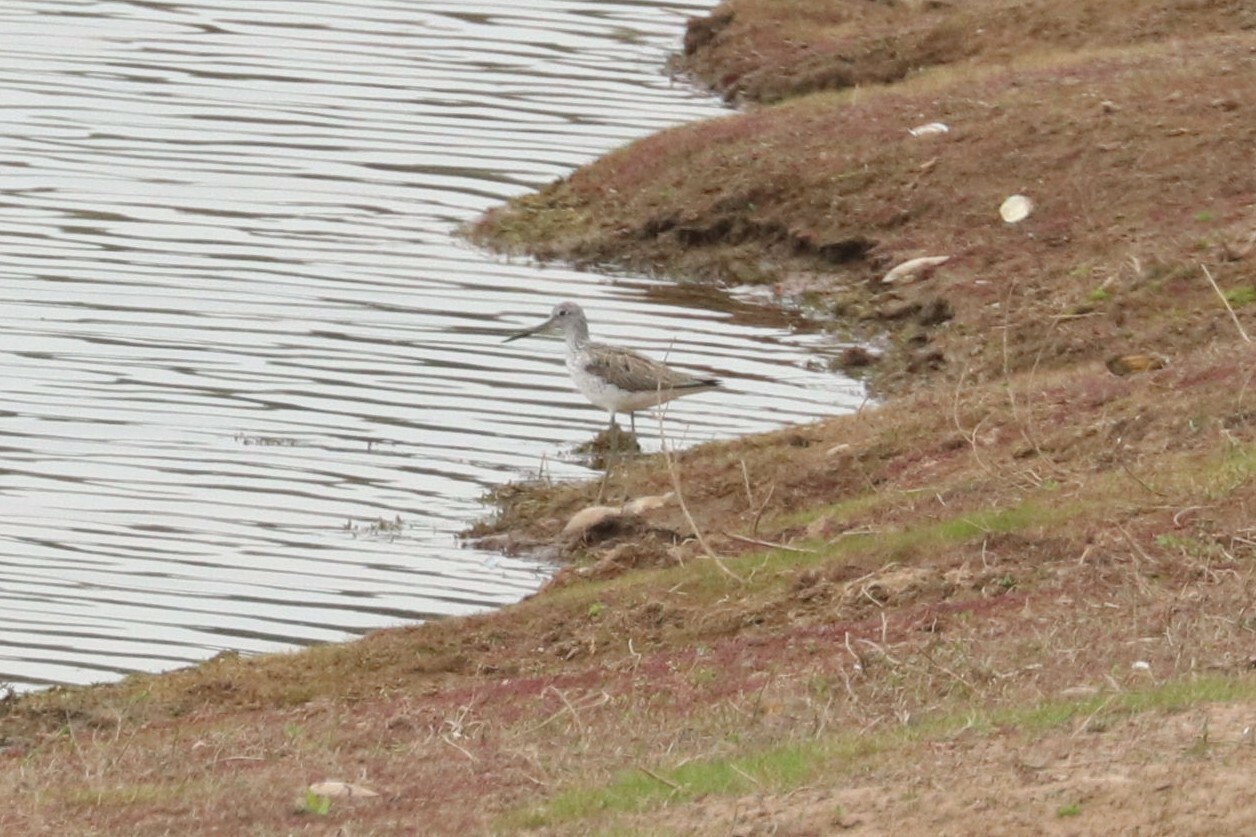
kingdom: Animalia
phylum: Chordata
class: Aves
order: Charadriiformes
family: Scolopacidae
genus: Tringa
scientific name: Tringa nebularia
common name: Common greenshank
